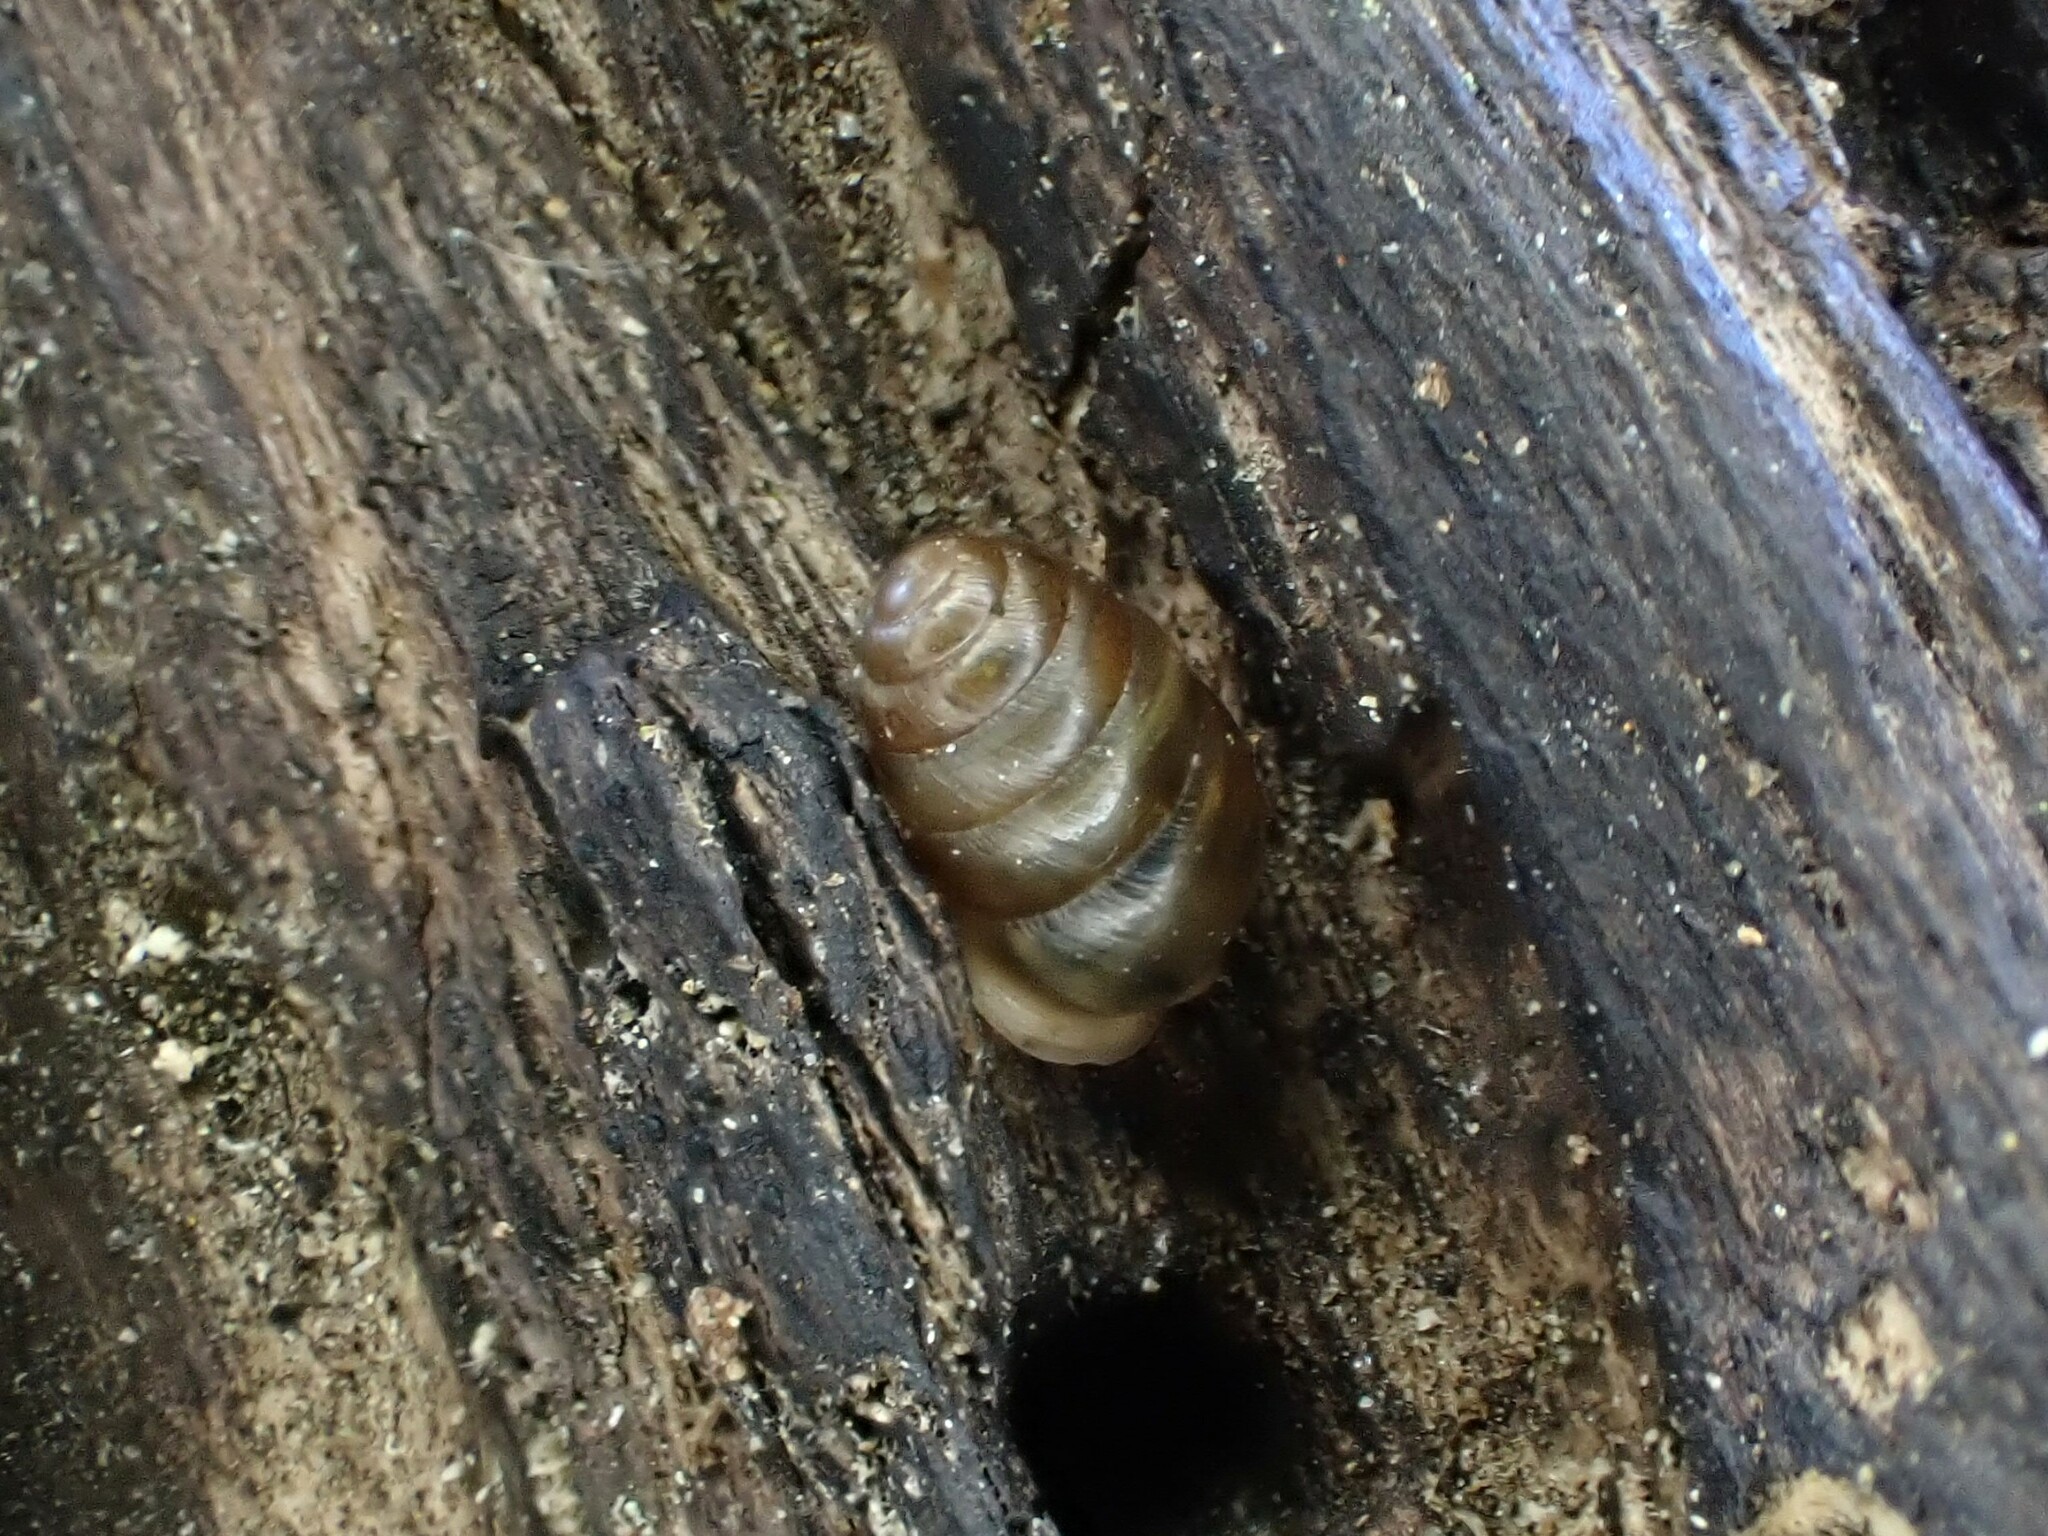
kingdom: Animalia
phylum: Mollusca
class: Gastropoda
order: Stylommatophora
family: Lauriidae
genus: Lauria
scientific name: Lauria cylindracea
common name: Common chrysalis snail
